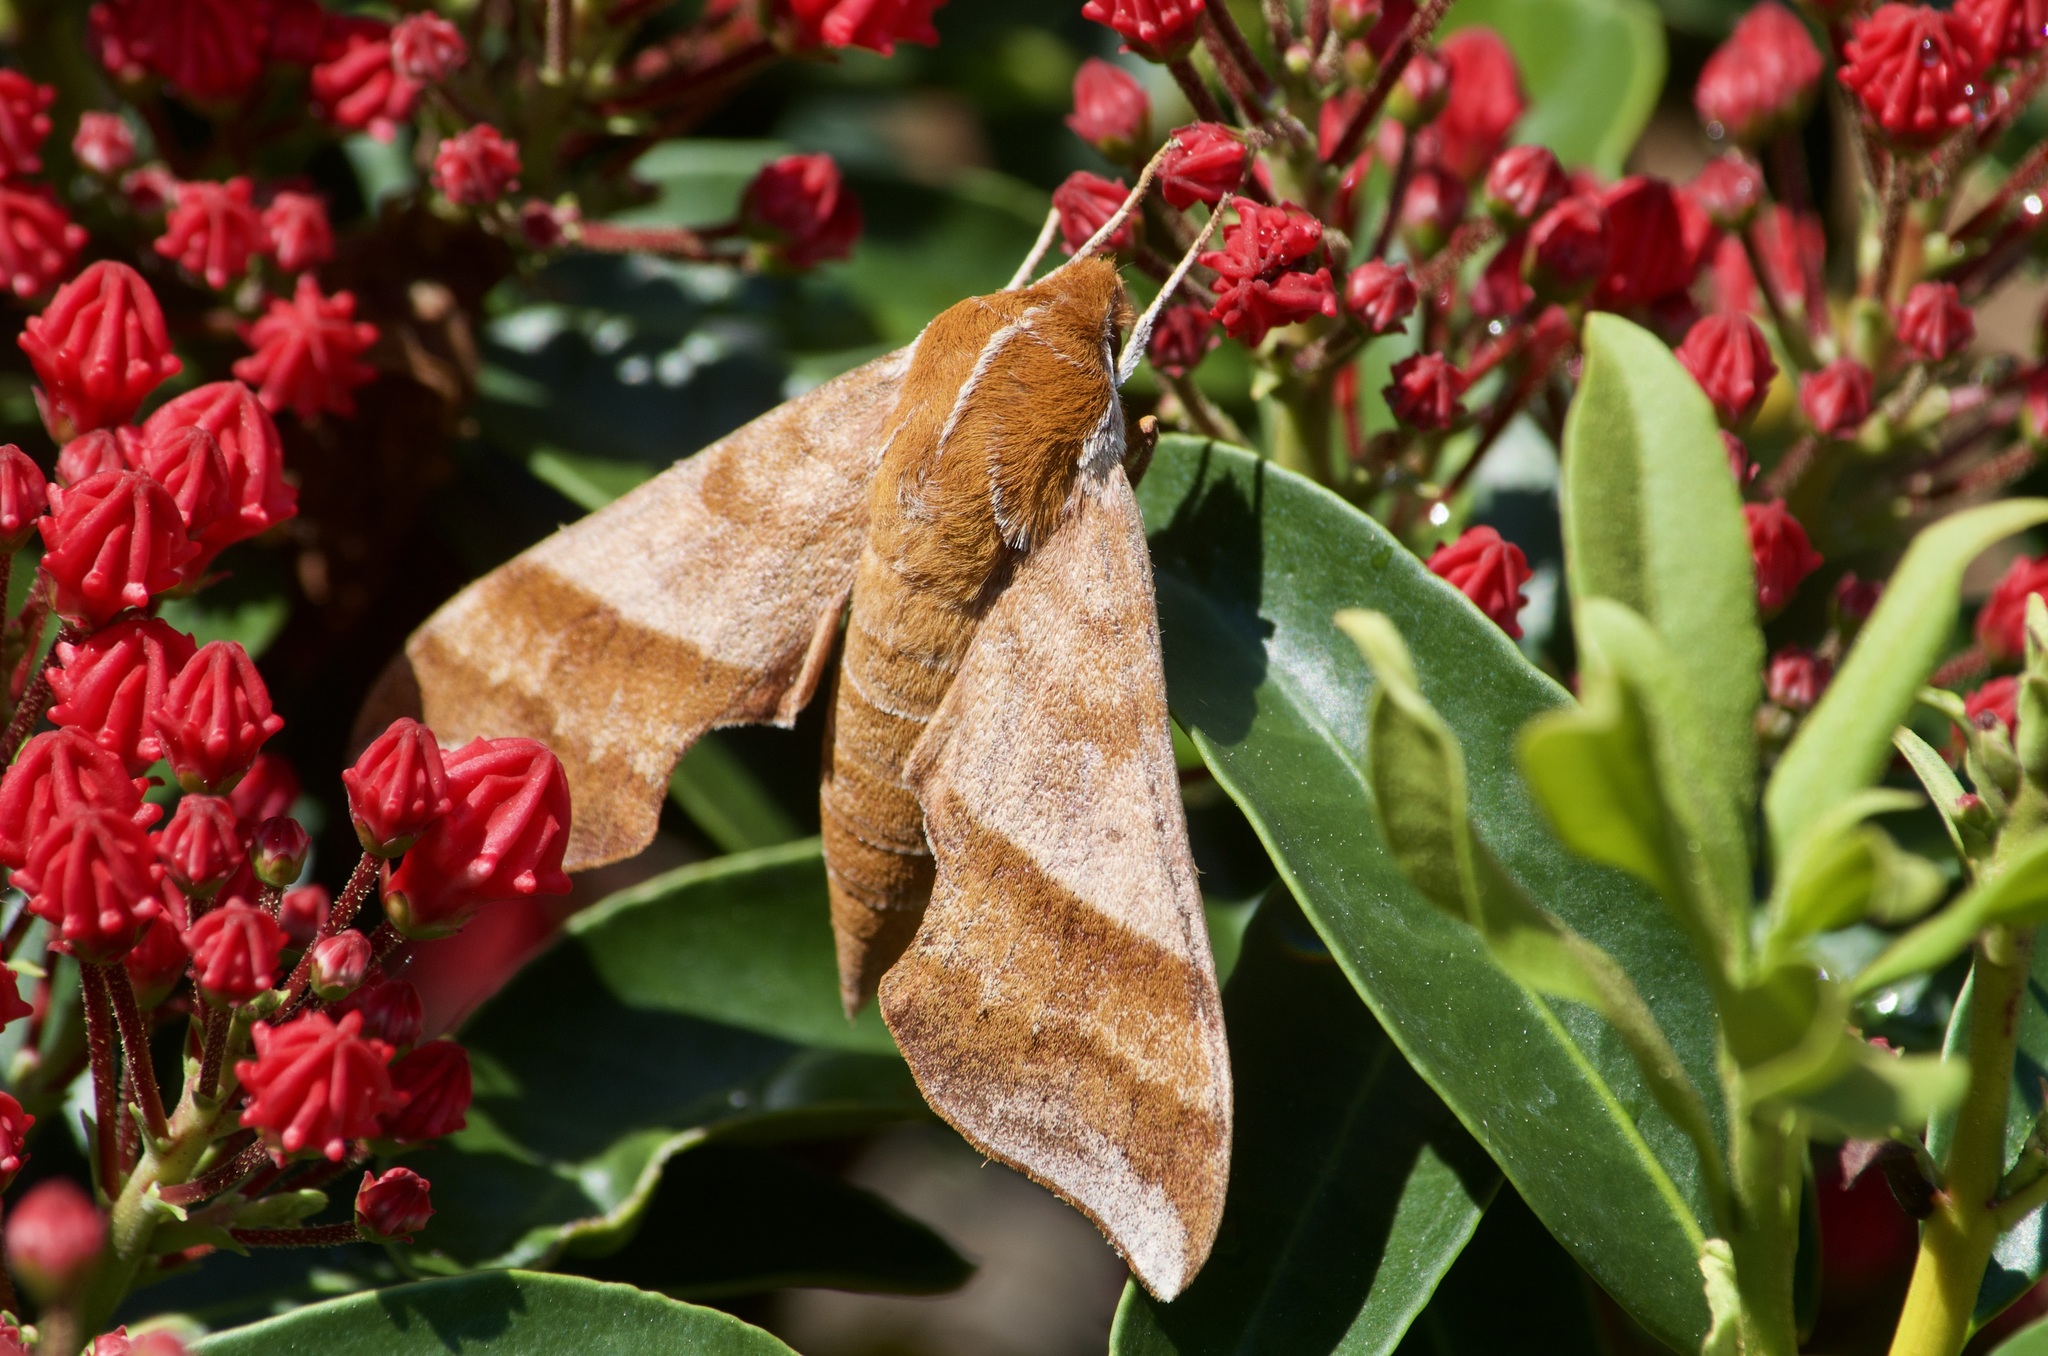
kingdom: Animalia
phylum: Arthropoda
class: Insecta
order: Lepidoptera
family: Sphingidae
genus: Darapsa
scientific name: Darapsa choerilus
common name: Azalea sphinx
